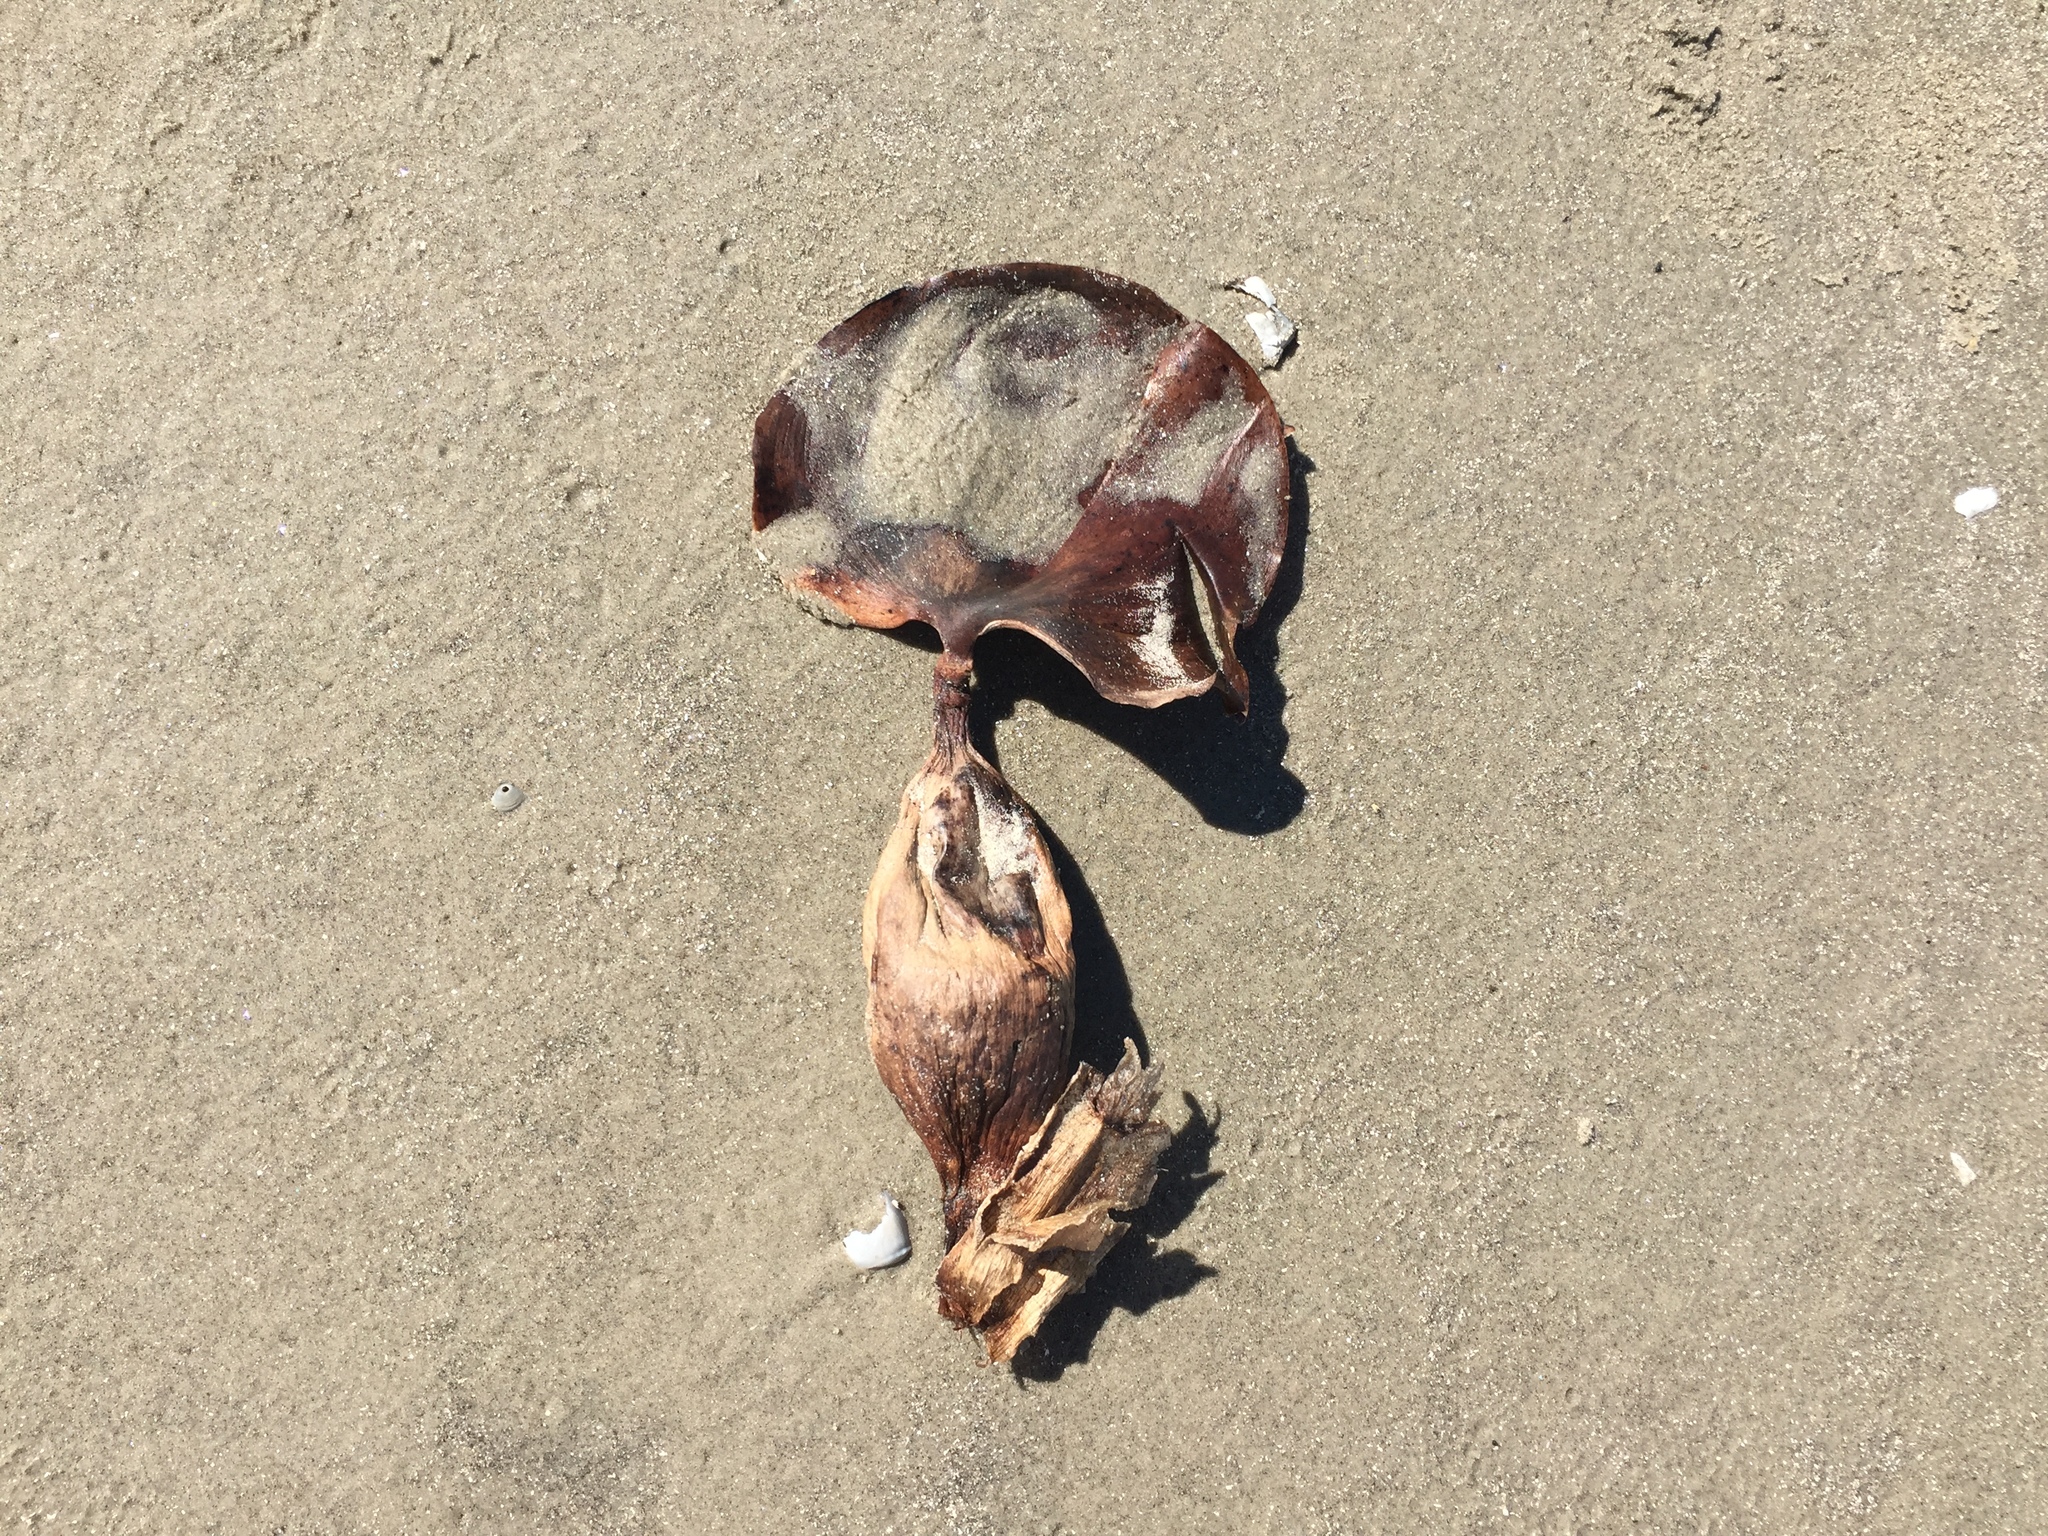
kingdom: Plantae
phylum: Tracheophyta
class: Liliopsida
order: Commelinales
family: Pontederiaceae
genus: Pontederia
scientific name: Pontederia crassipes
